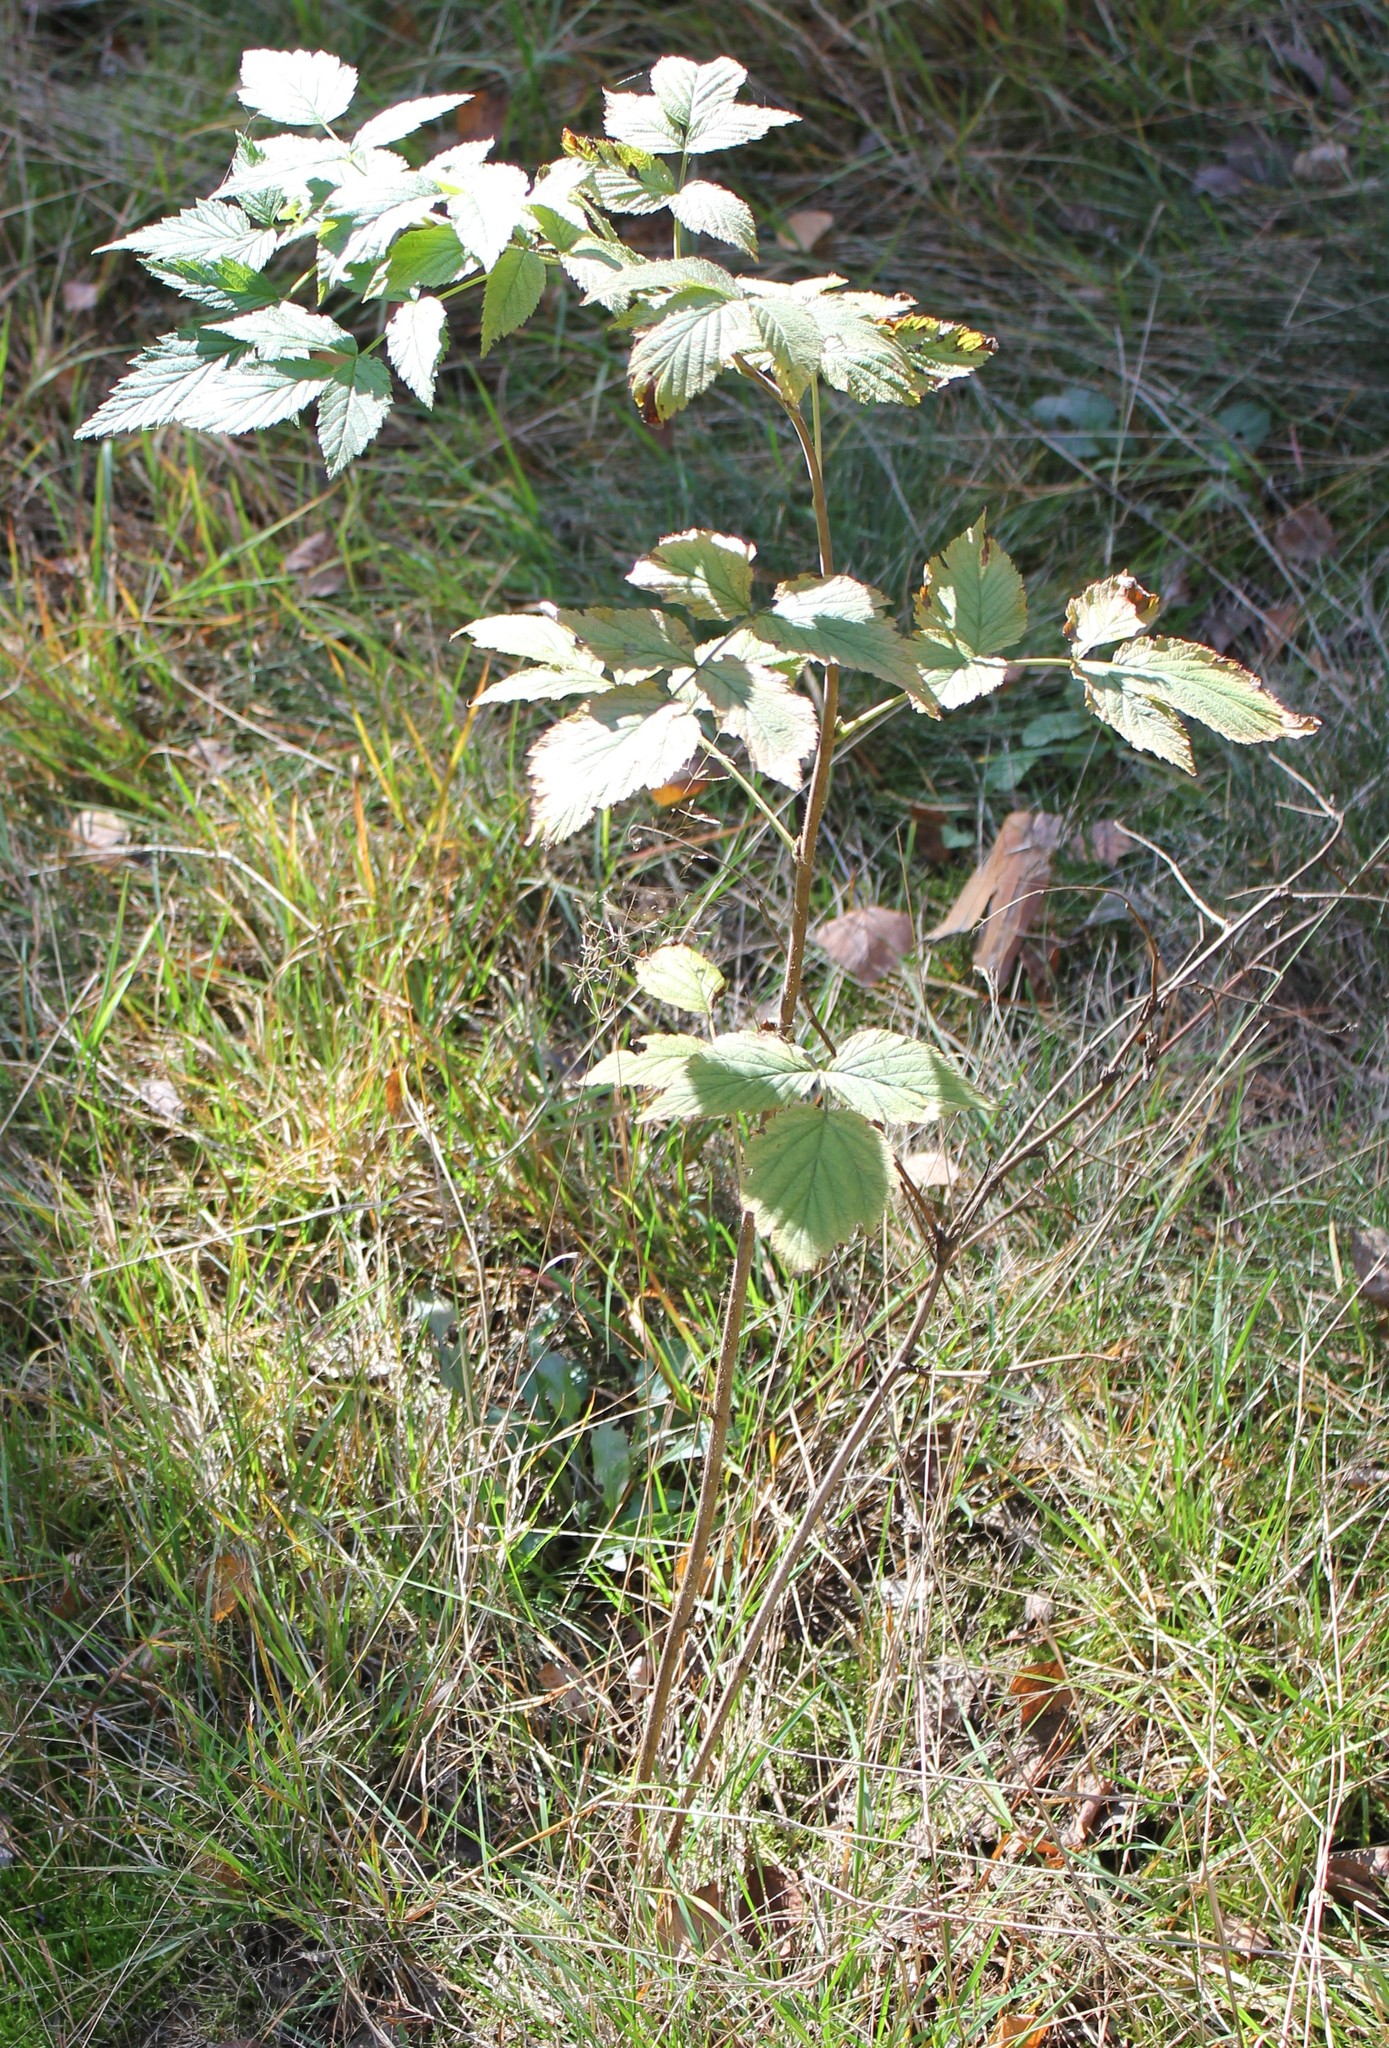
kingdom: Plantae
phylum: Tracheophyta
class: Magnoliopsida
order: Rosales
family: Rosaceae
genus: Rubus
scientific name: Rubus idaeus
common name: Raspberry
